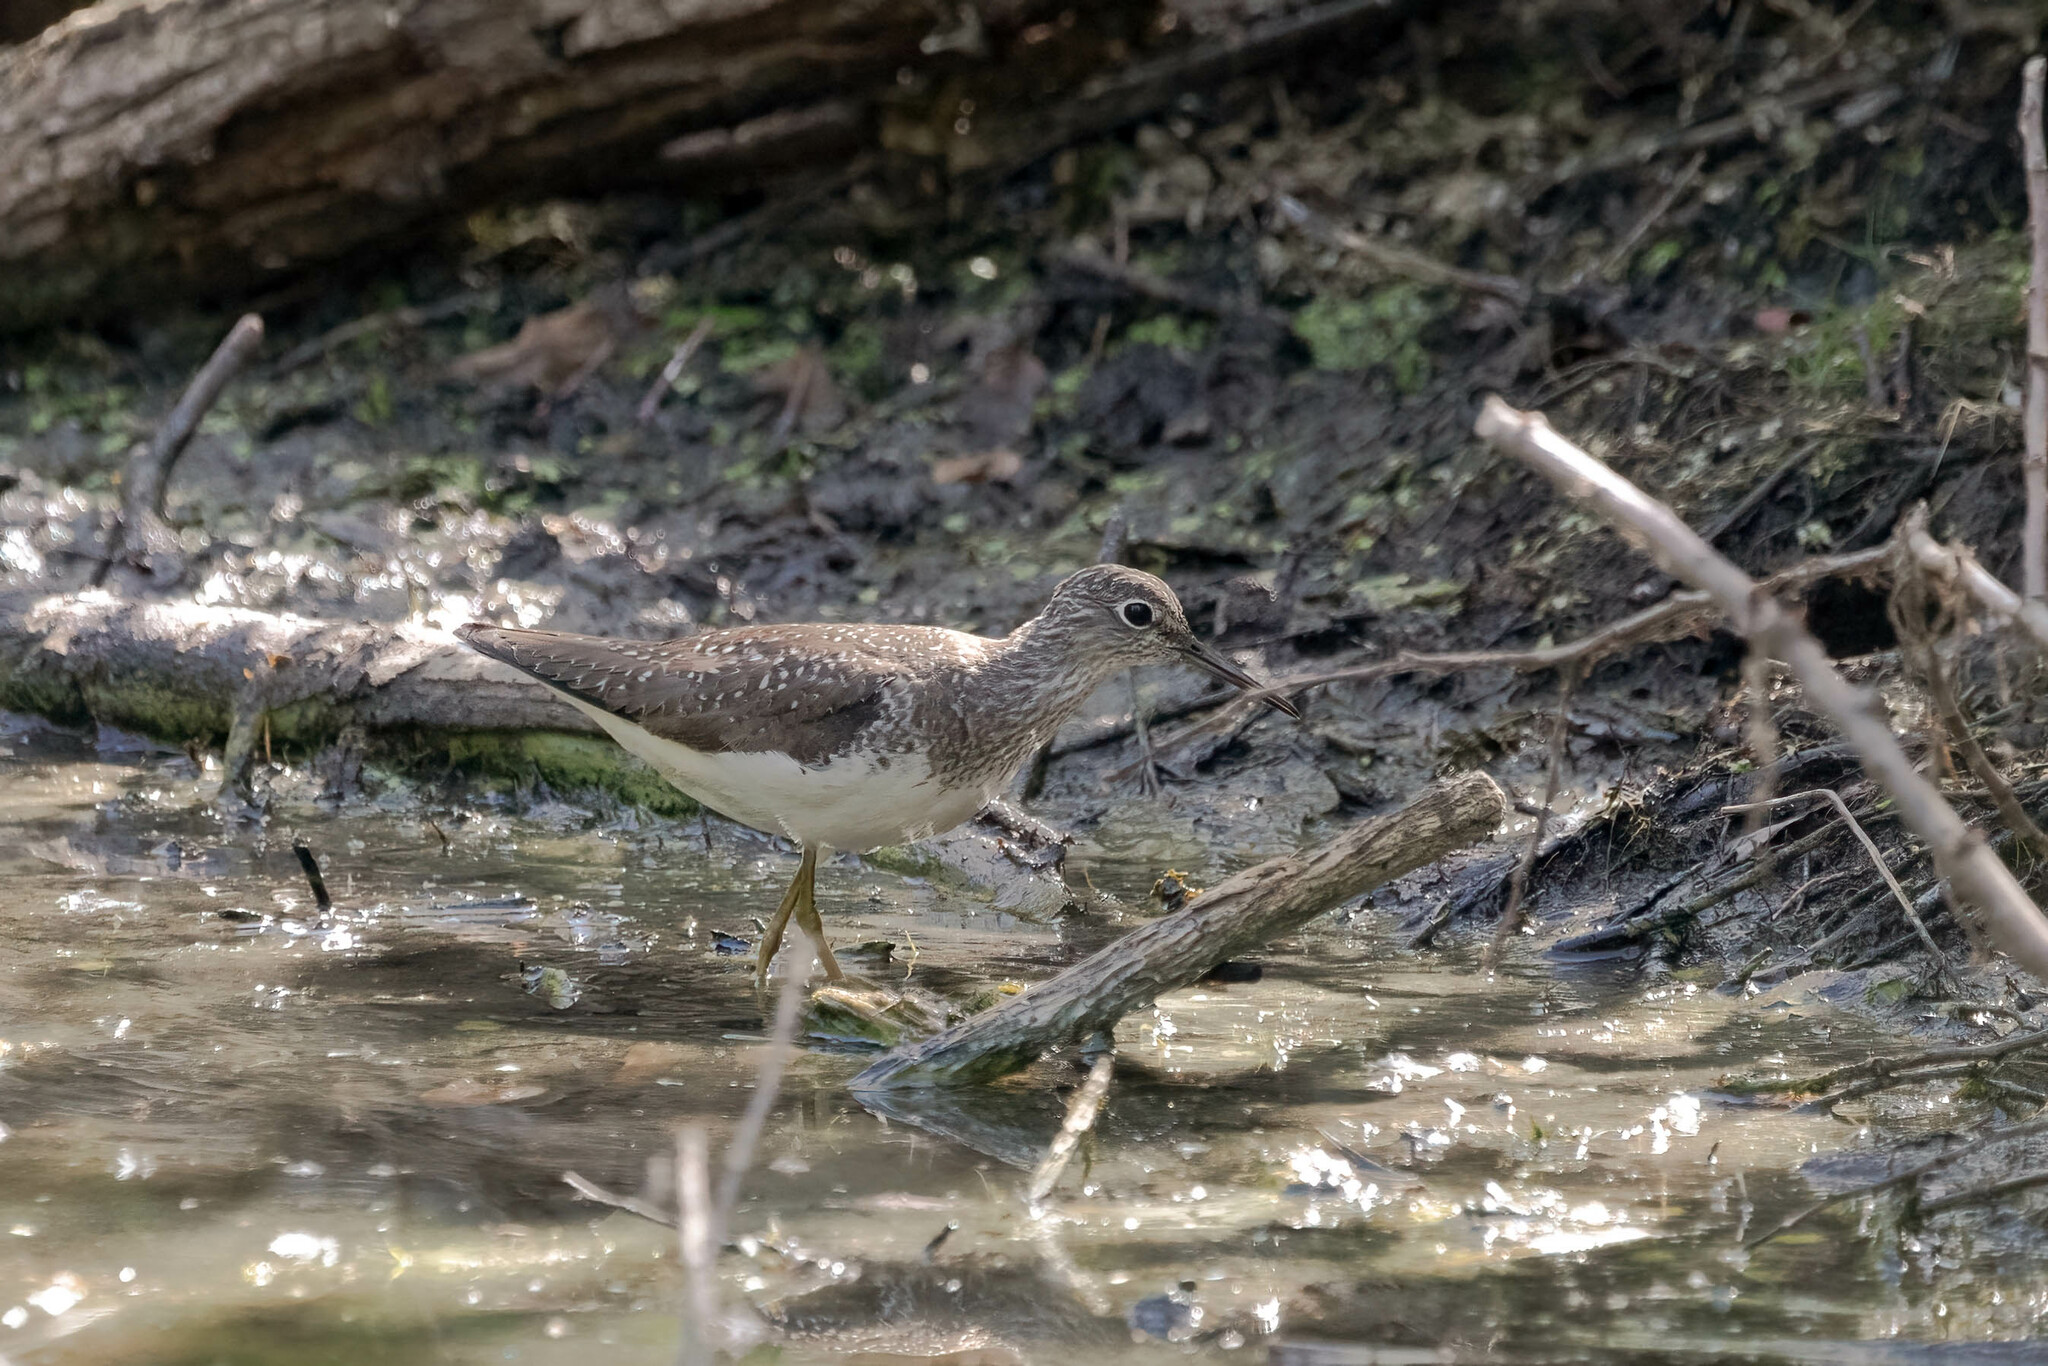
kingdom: Animalia
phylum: Chordata
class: Aves
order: Charadriiformes
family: Scolopacidae
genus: Tringa
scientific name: Tringa solitaria
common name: Solitary sandpiper
